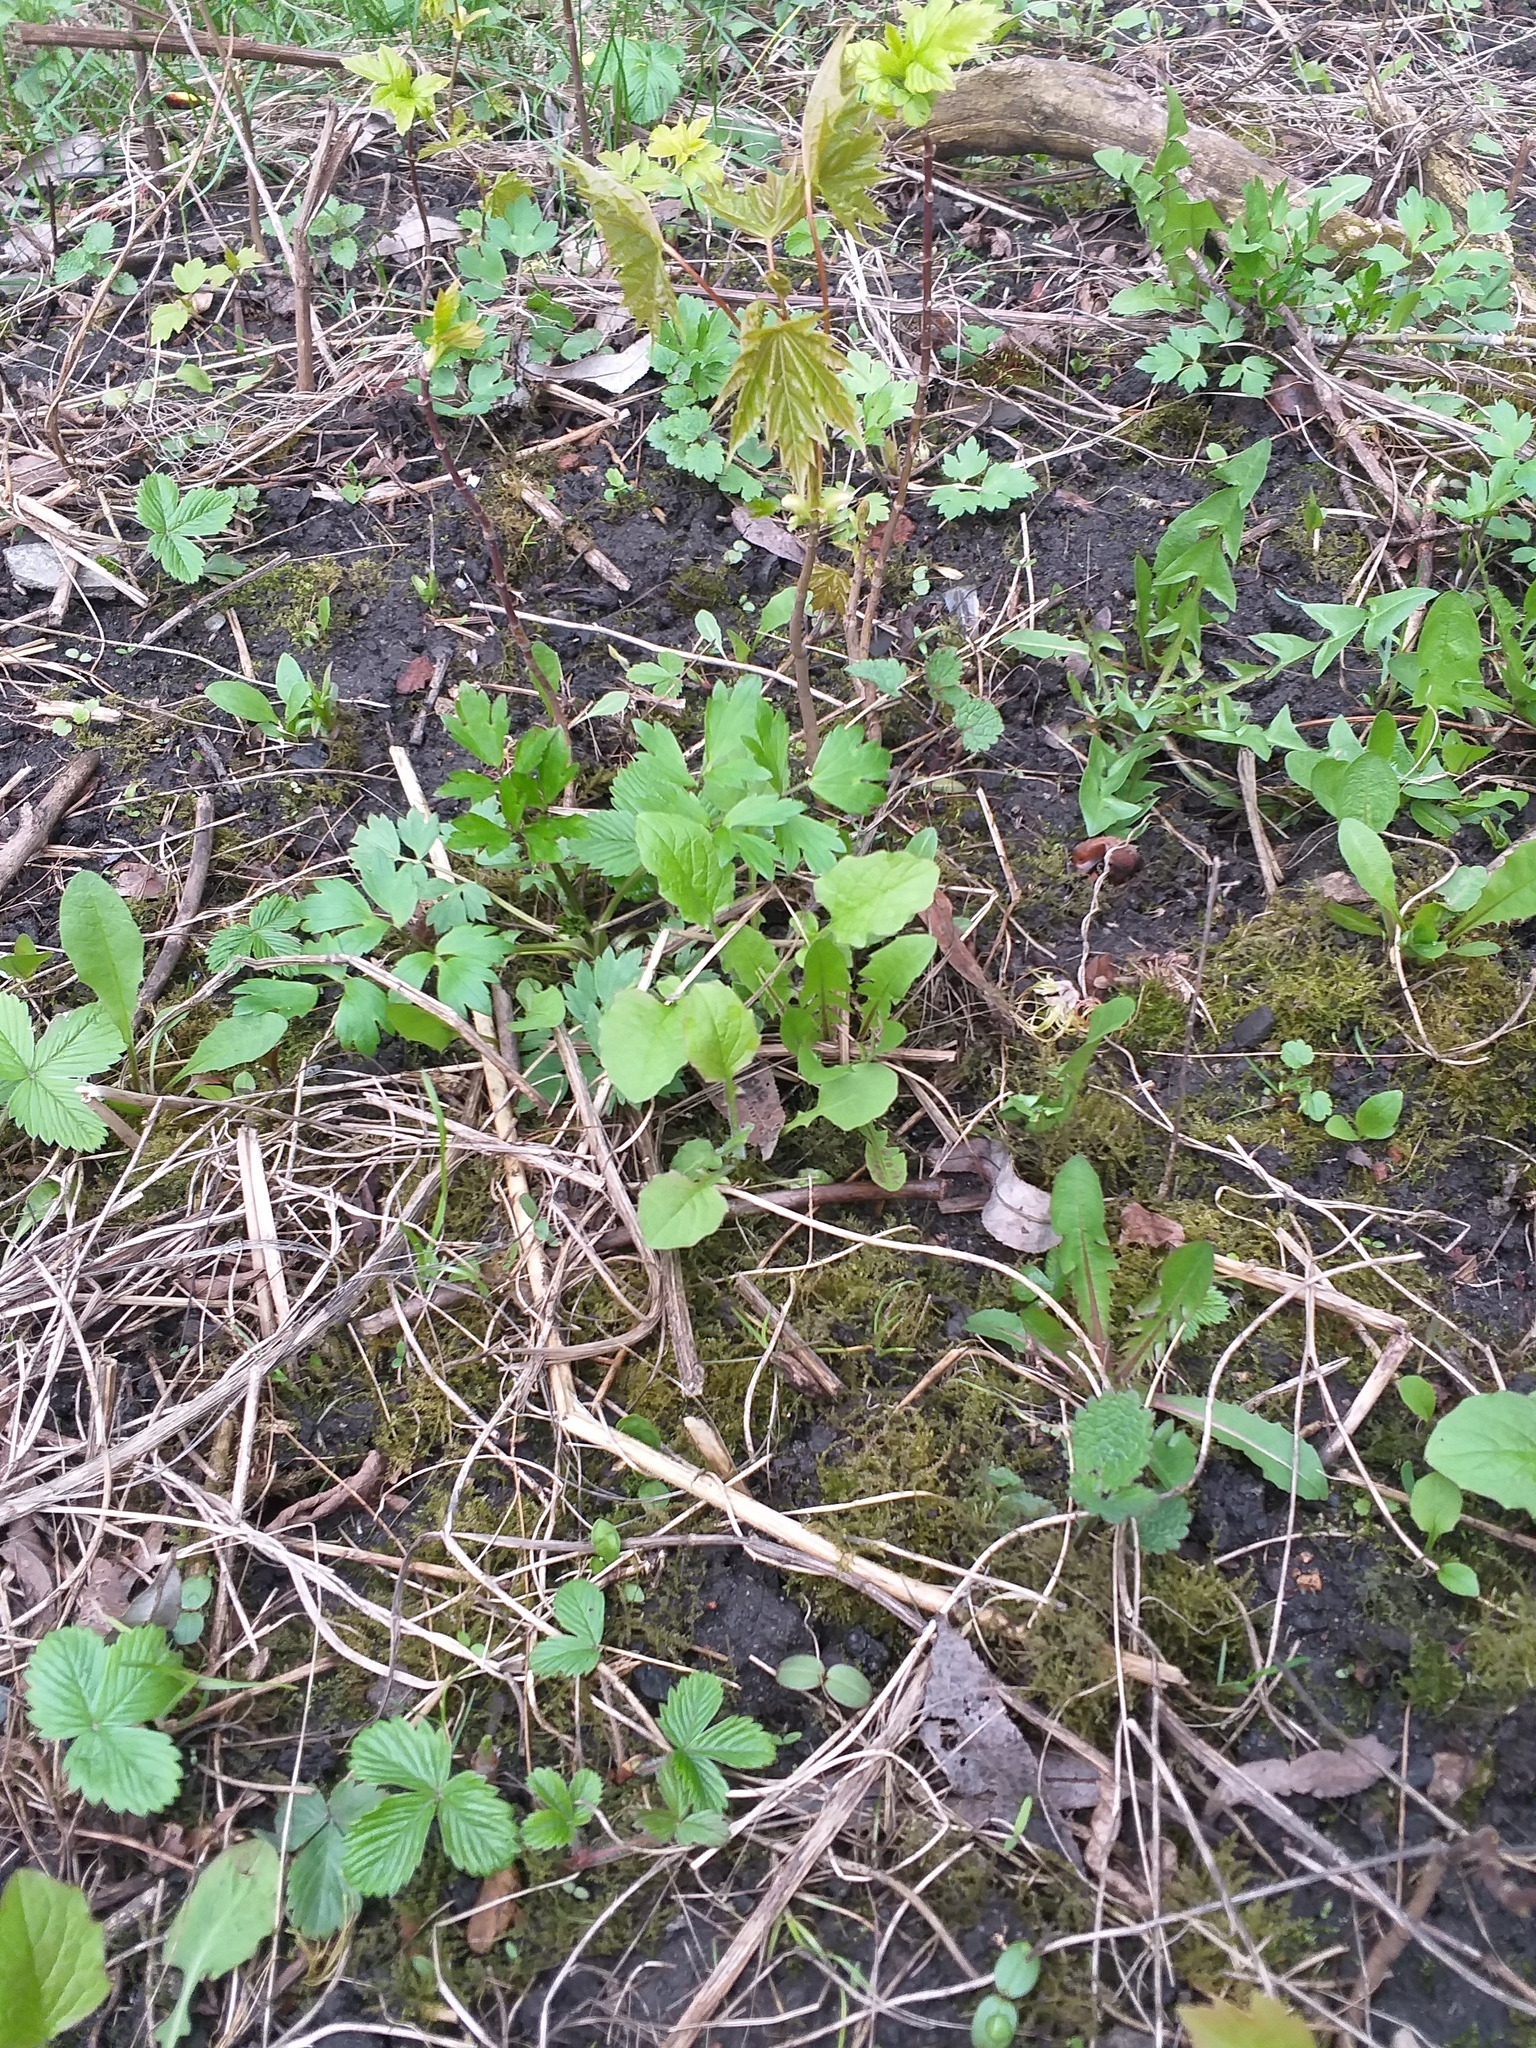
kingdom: Plantae
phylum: Tracheophyta
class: Magnoliopsida
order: Asterales
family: Asteraceae
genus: Lapsana
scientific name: Lapsana communis
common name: Nipplewort
